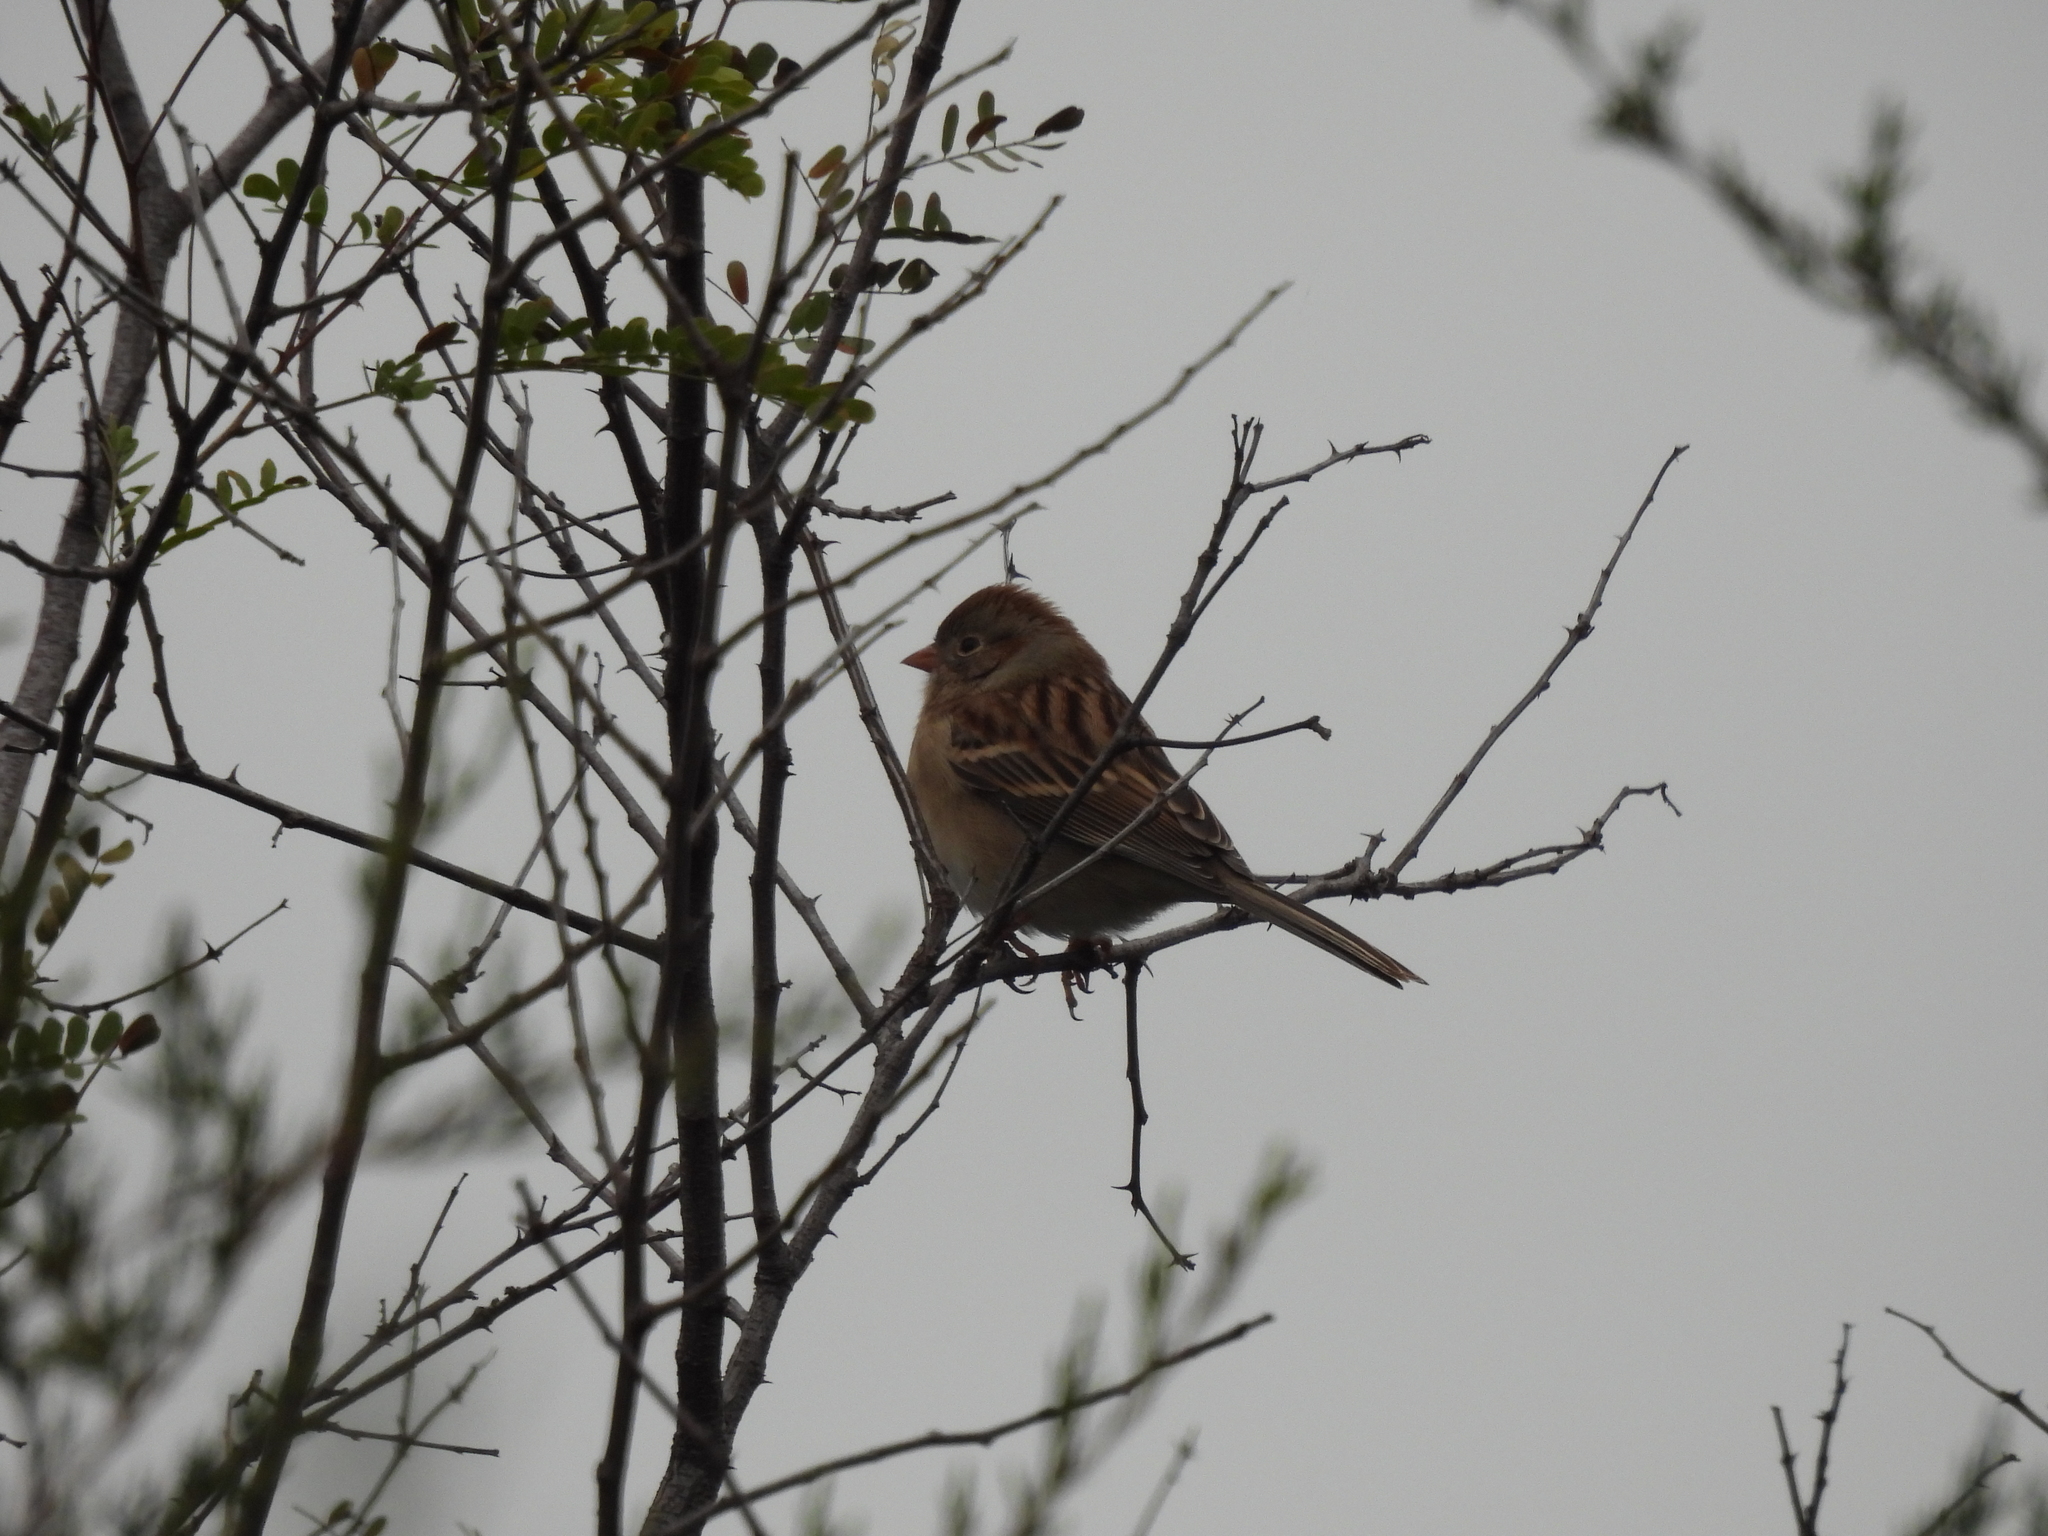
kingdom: Animalia
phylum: Chordata
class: Aves
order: Passeriformes
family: Passerellidae
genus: Spizella
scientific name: Spizella pusilla
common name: Field sparrow
